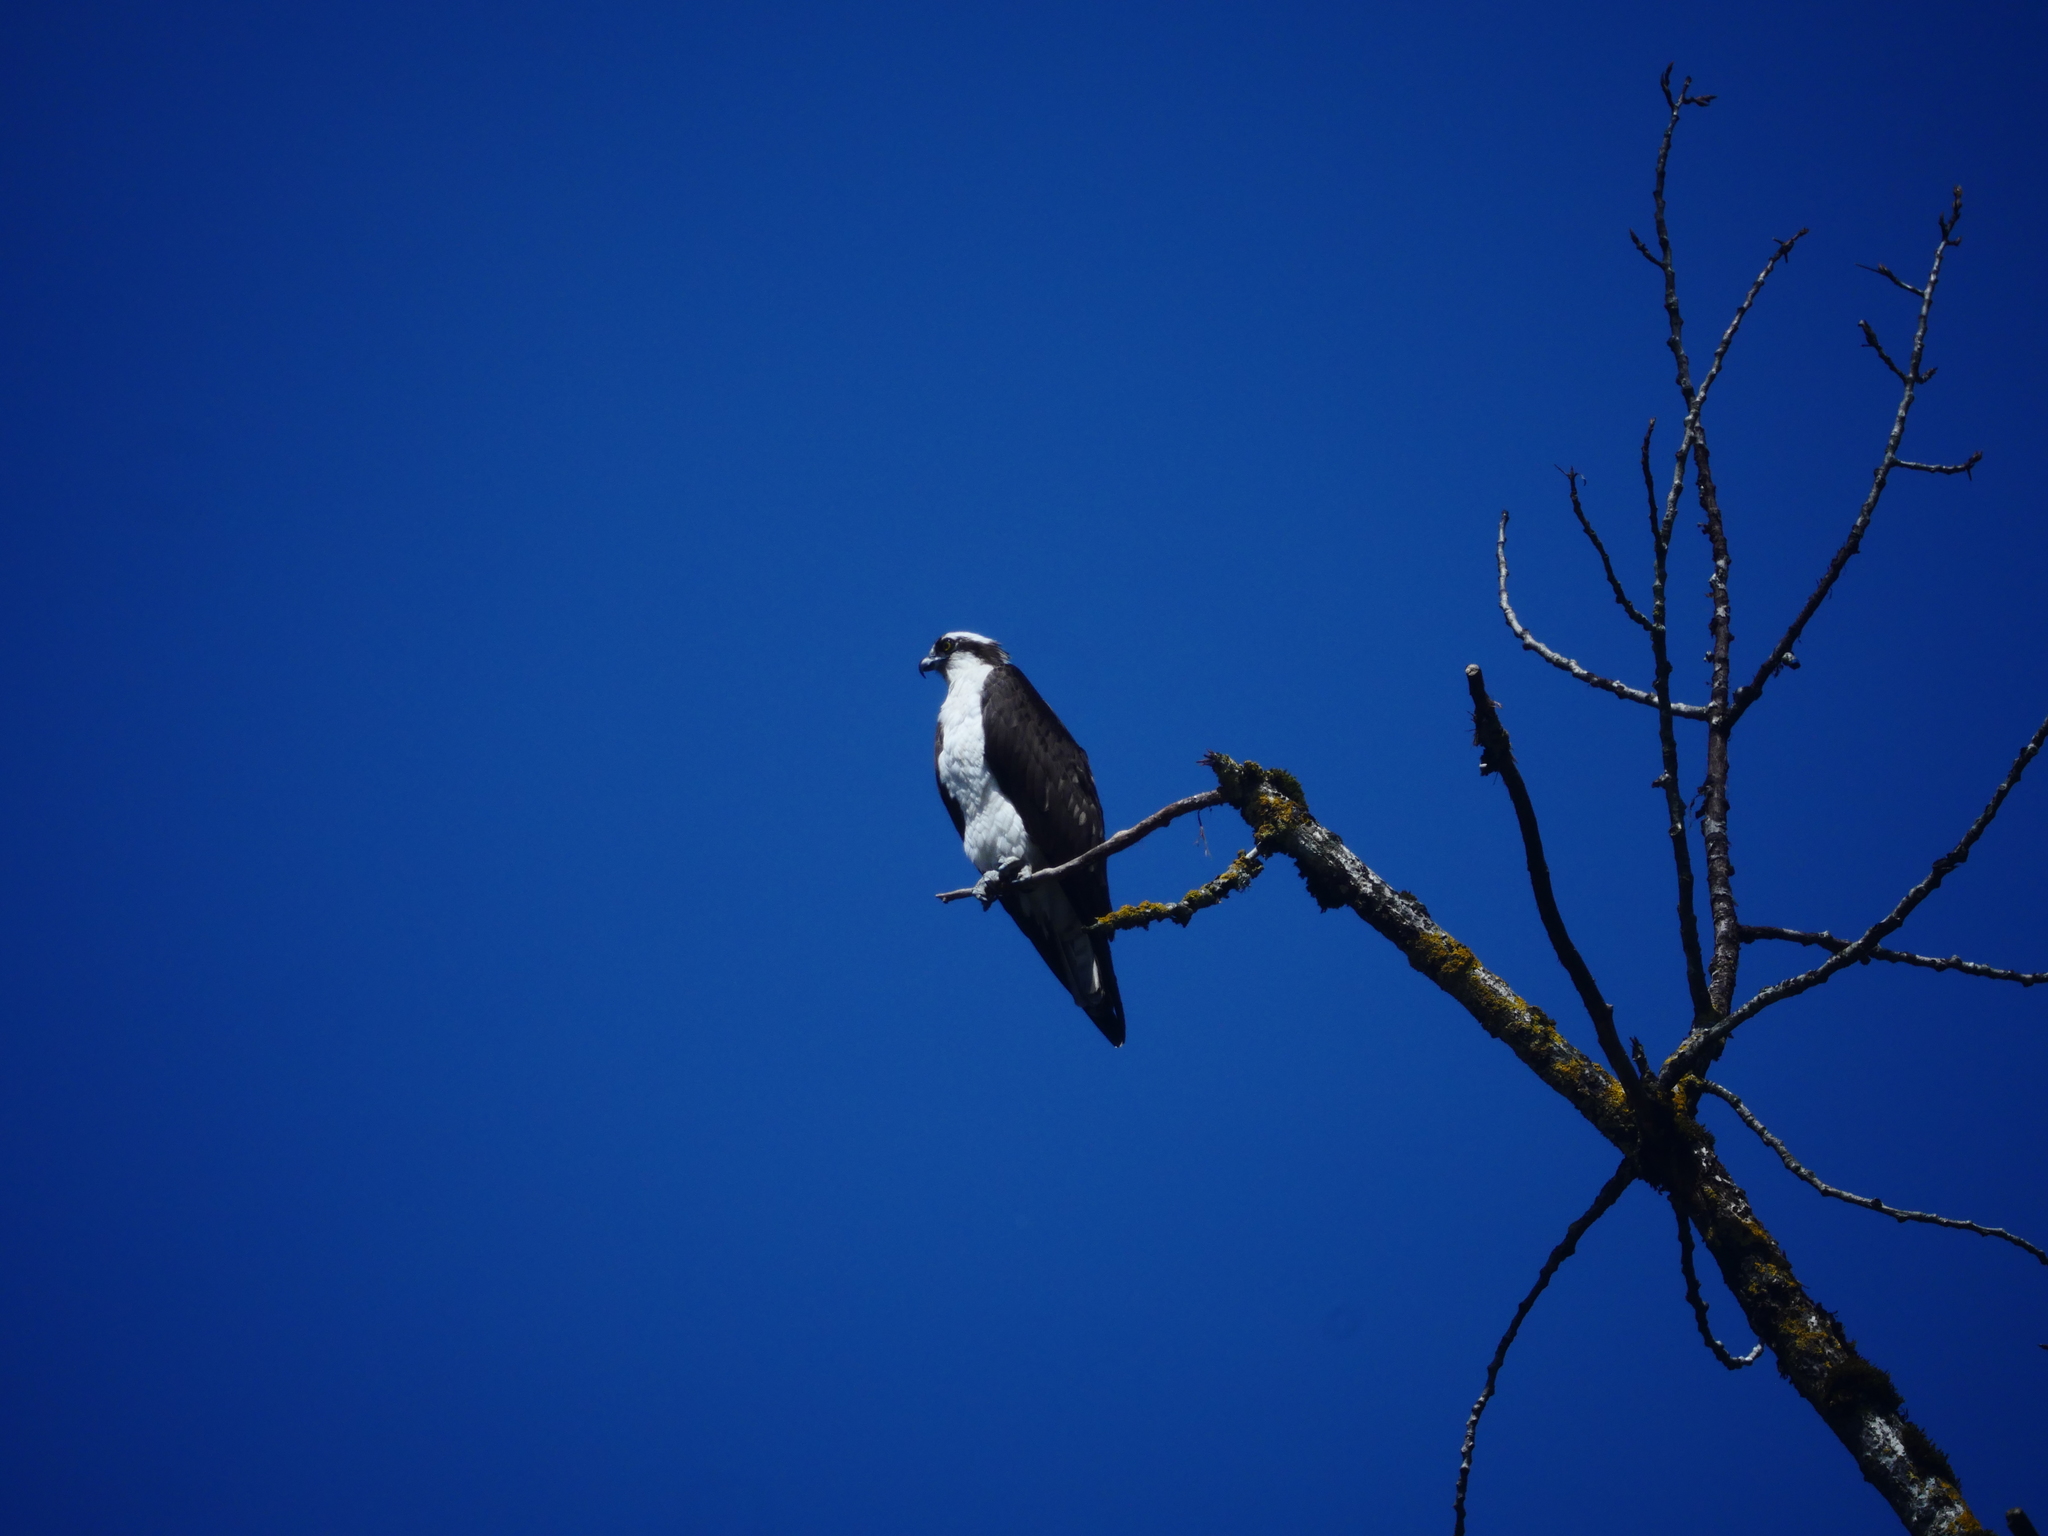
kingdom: Animalia
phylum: Chordata
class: Aves
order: Accipitriformes
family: Pandionidae
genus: Pandion
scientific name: Pandion haliaetus
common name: Osprey
